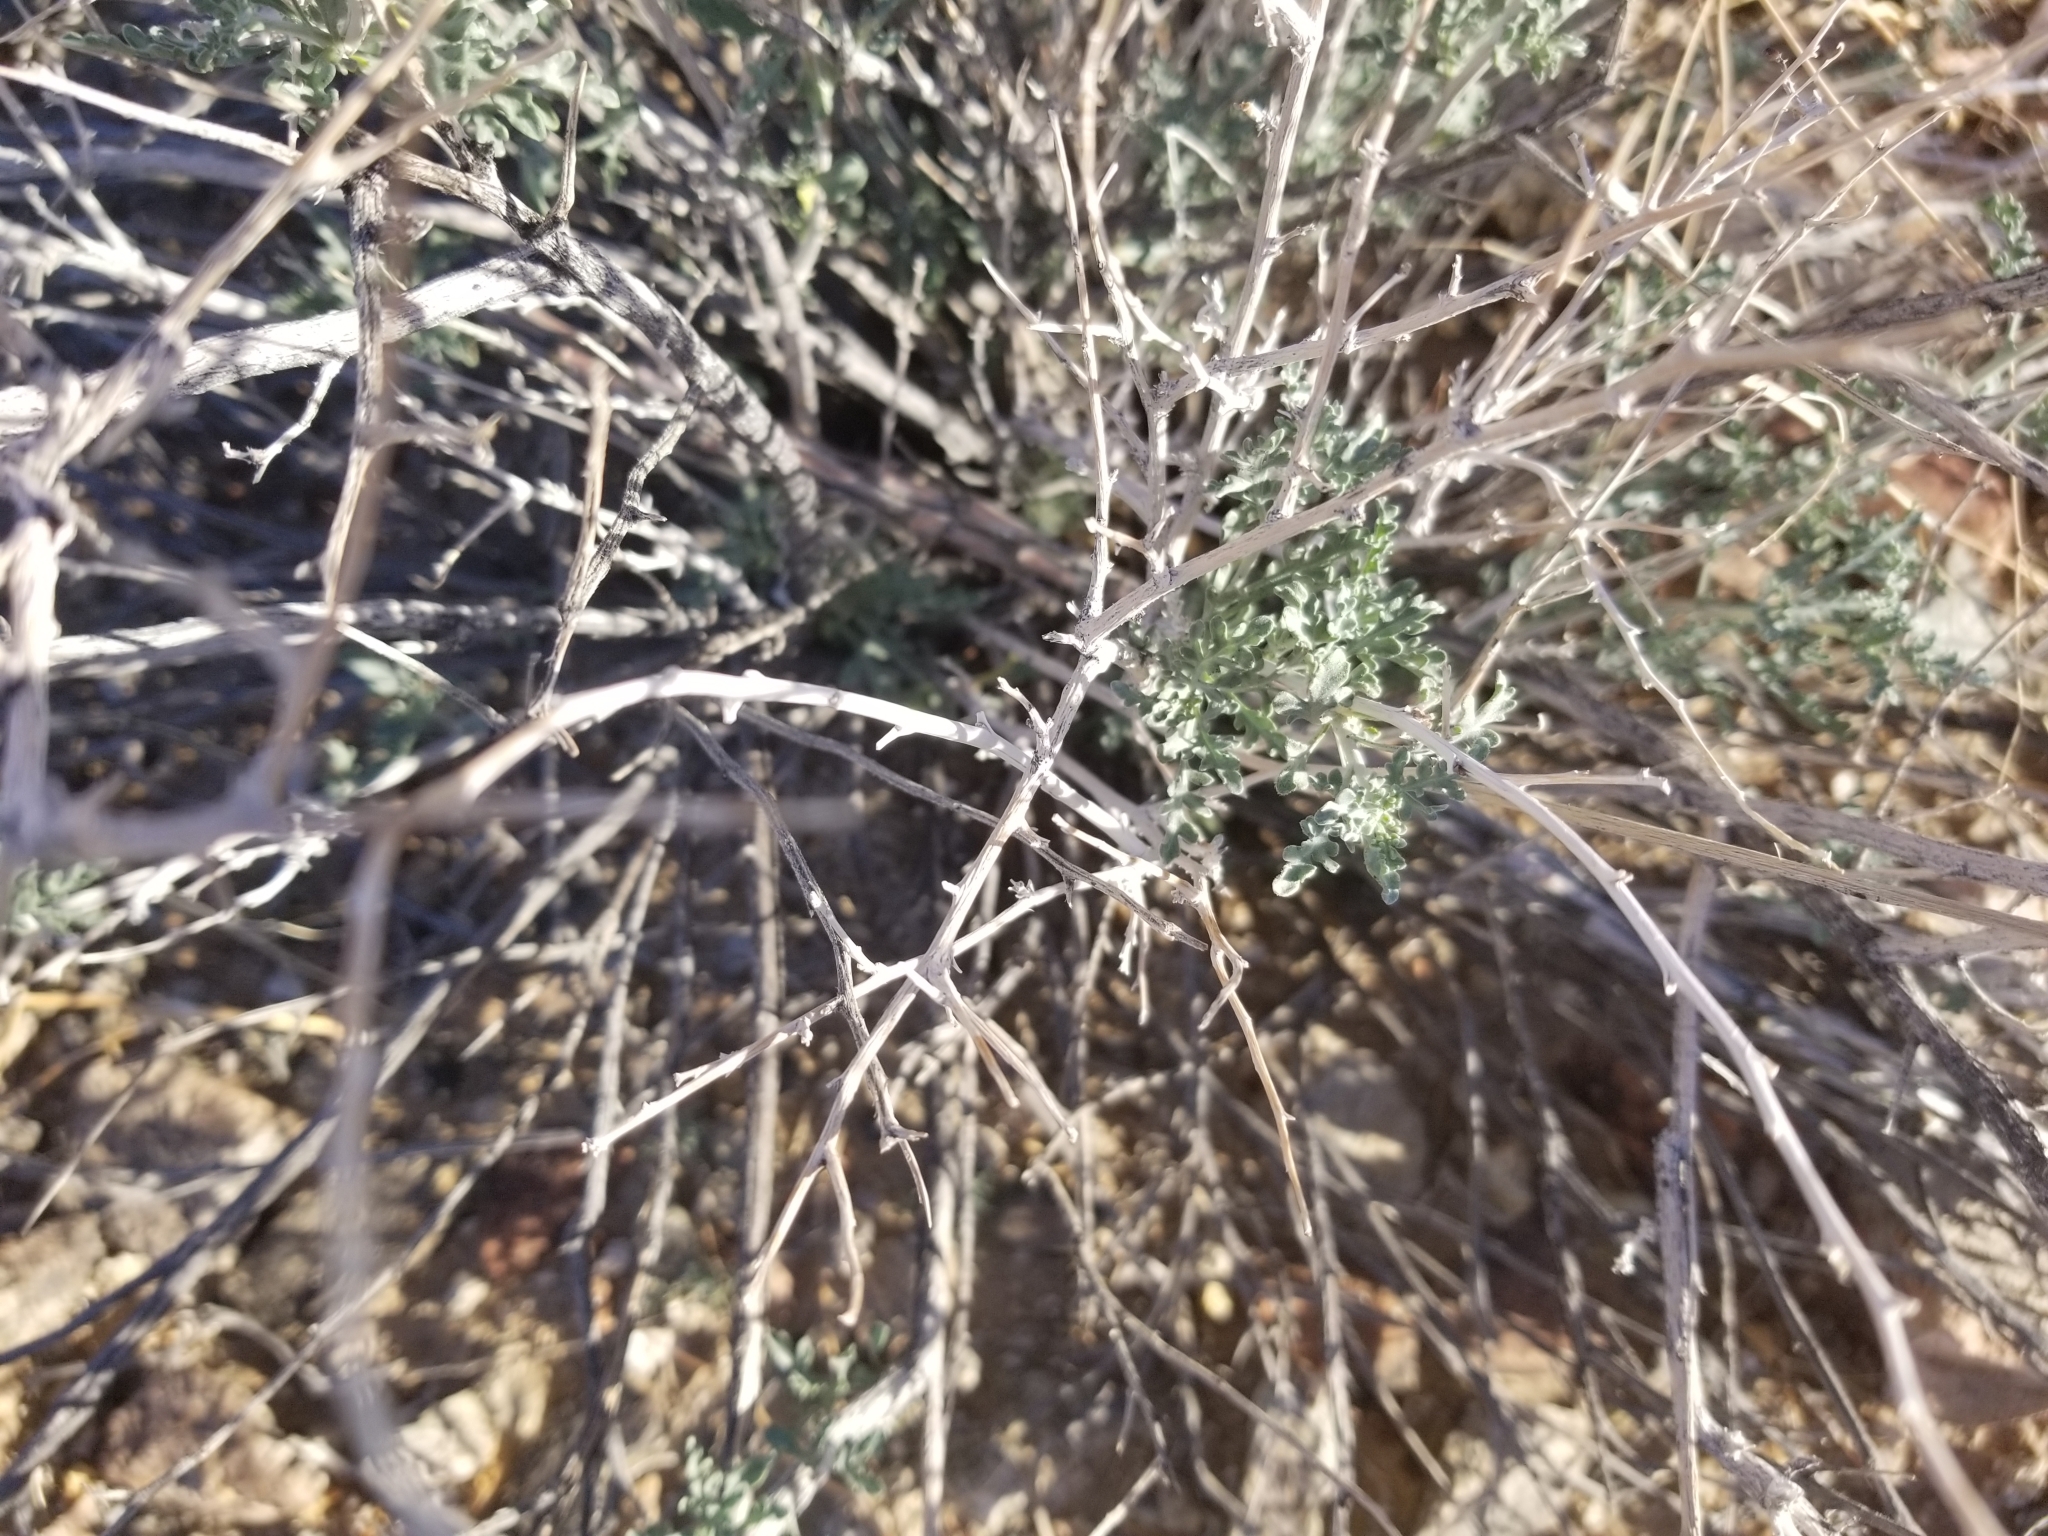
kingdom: Plantae
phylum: Tracheophyta
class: Magnoliopsida
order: Asterales
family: Asteraceae
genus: Ambrosia
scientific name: Ambrosia dumosa
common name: Bur-sage
